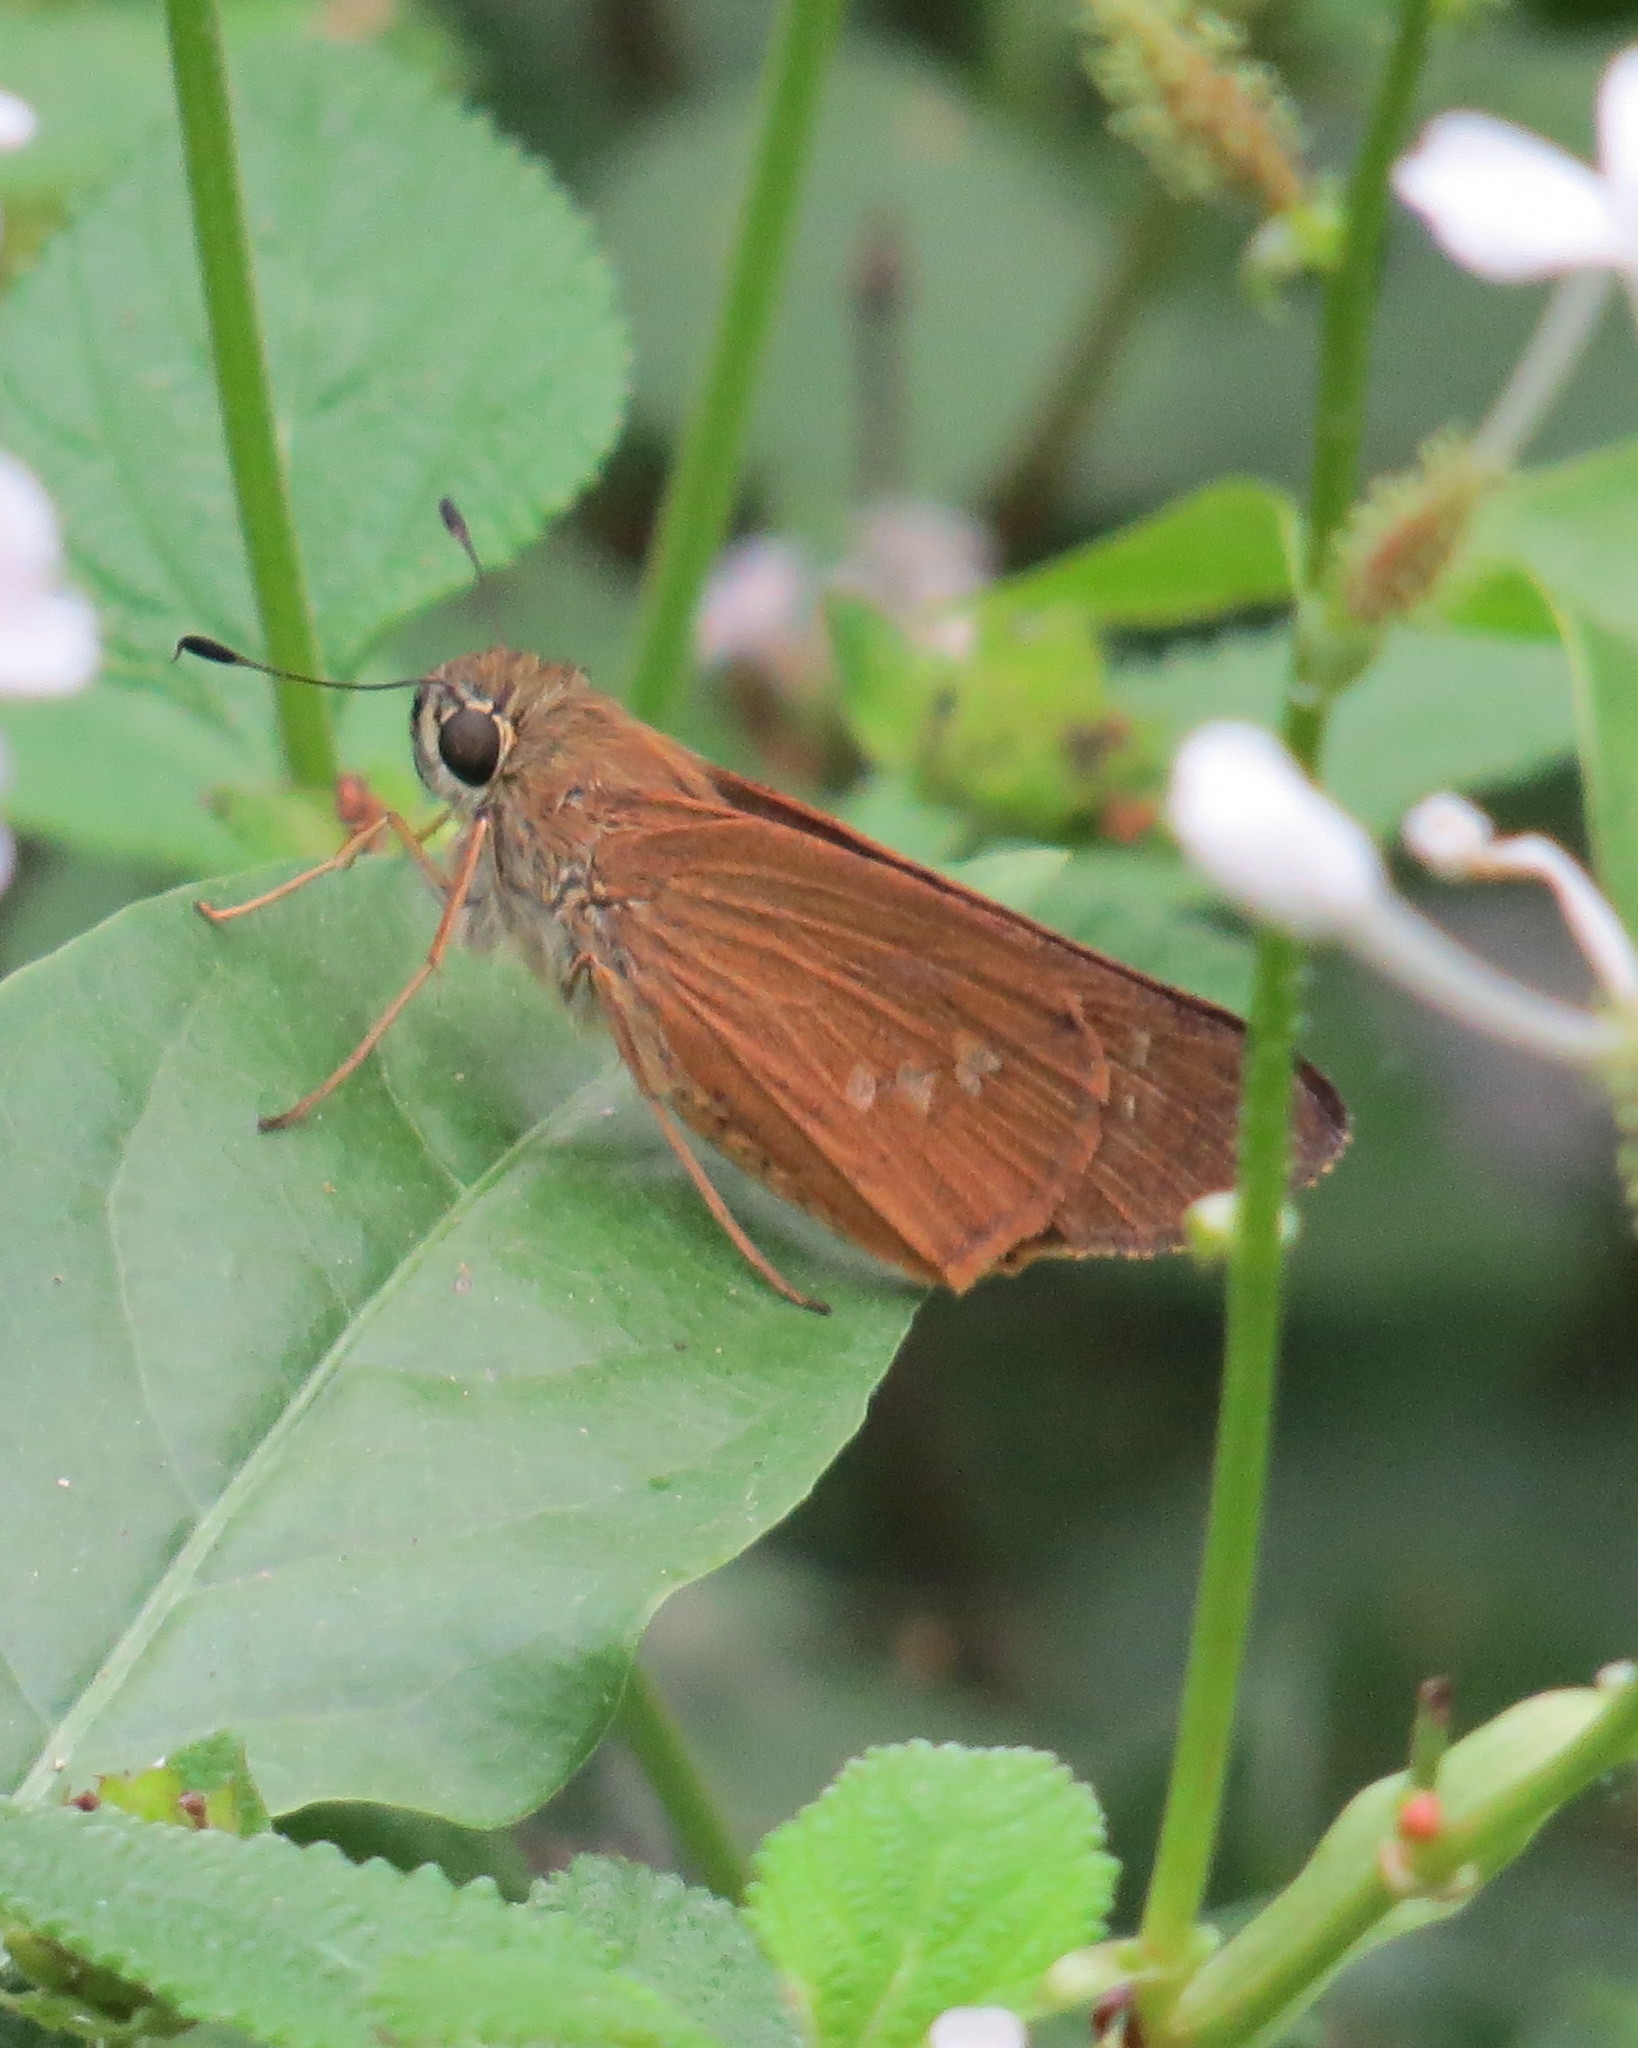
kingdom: Animalia
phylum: Arthropoda
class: Insecta
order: Lepidoptera
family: Hesperiidae
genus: Calpodes
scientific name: Calpodes ethlius
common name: Brazilian skipper
